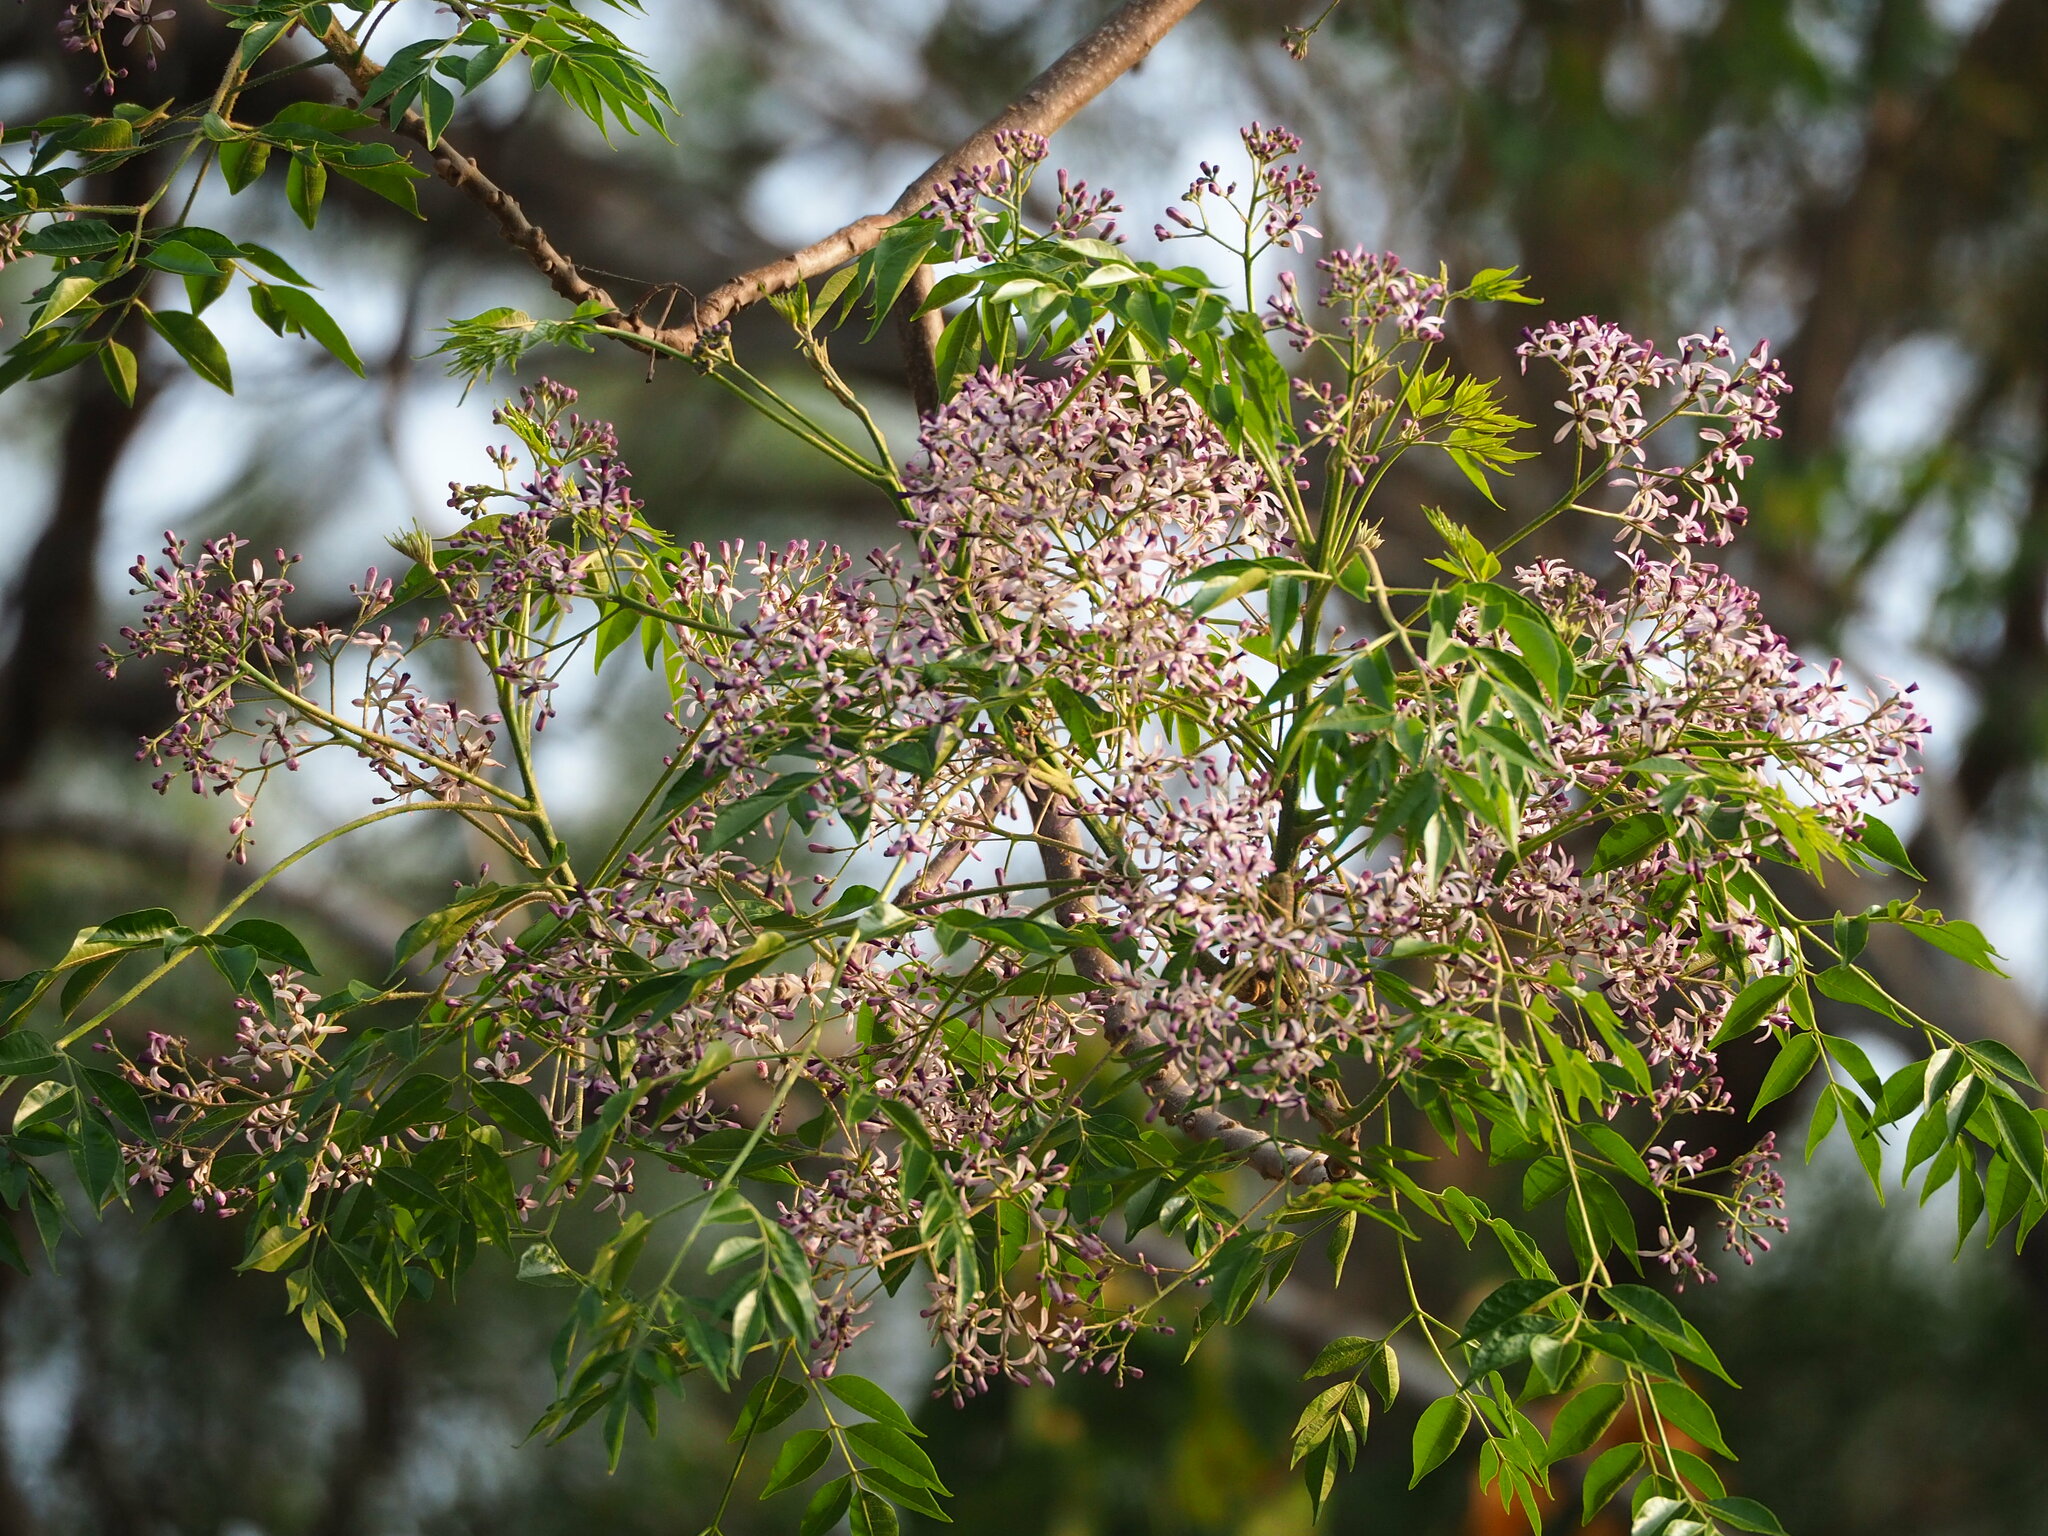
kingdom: Plantae
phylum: Tracheophyta
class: Magnoliopsida
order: Sapindales
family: Meliaceae
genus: Melia
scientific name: Melia azedarach
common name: Chinaberrytree
